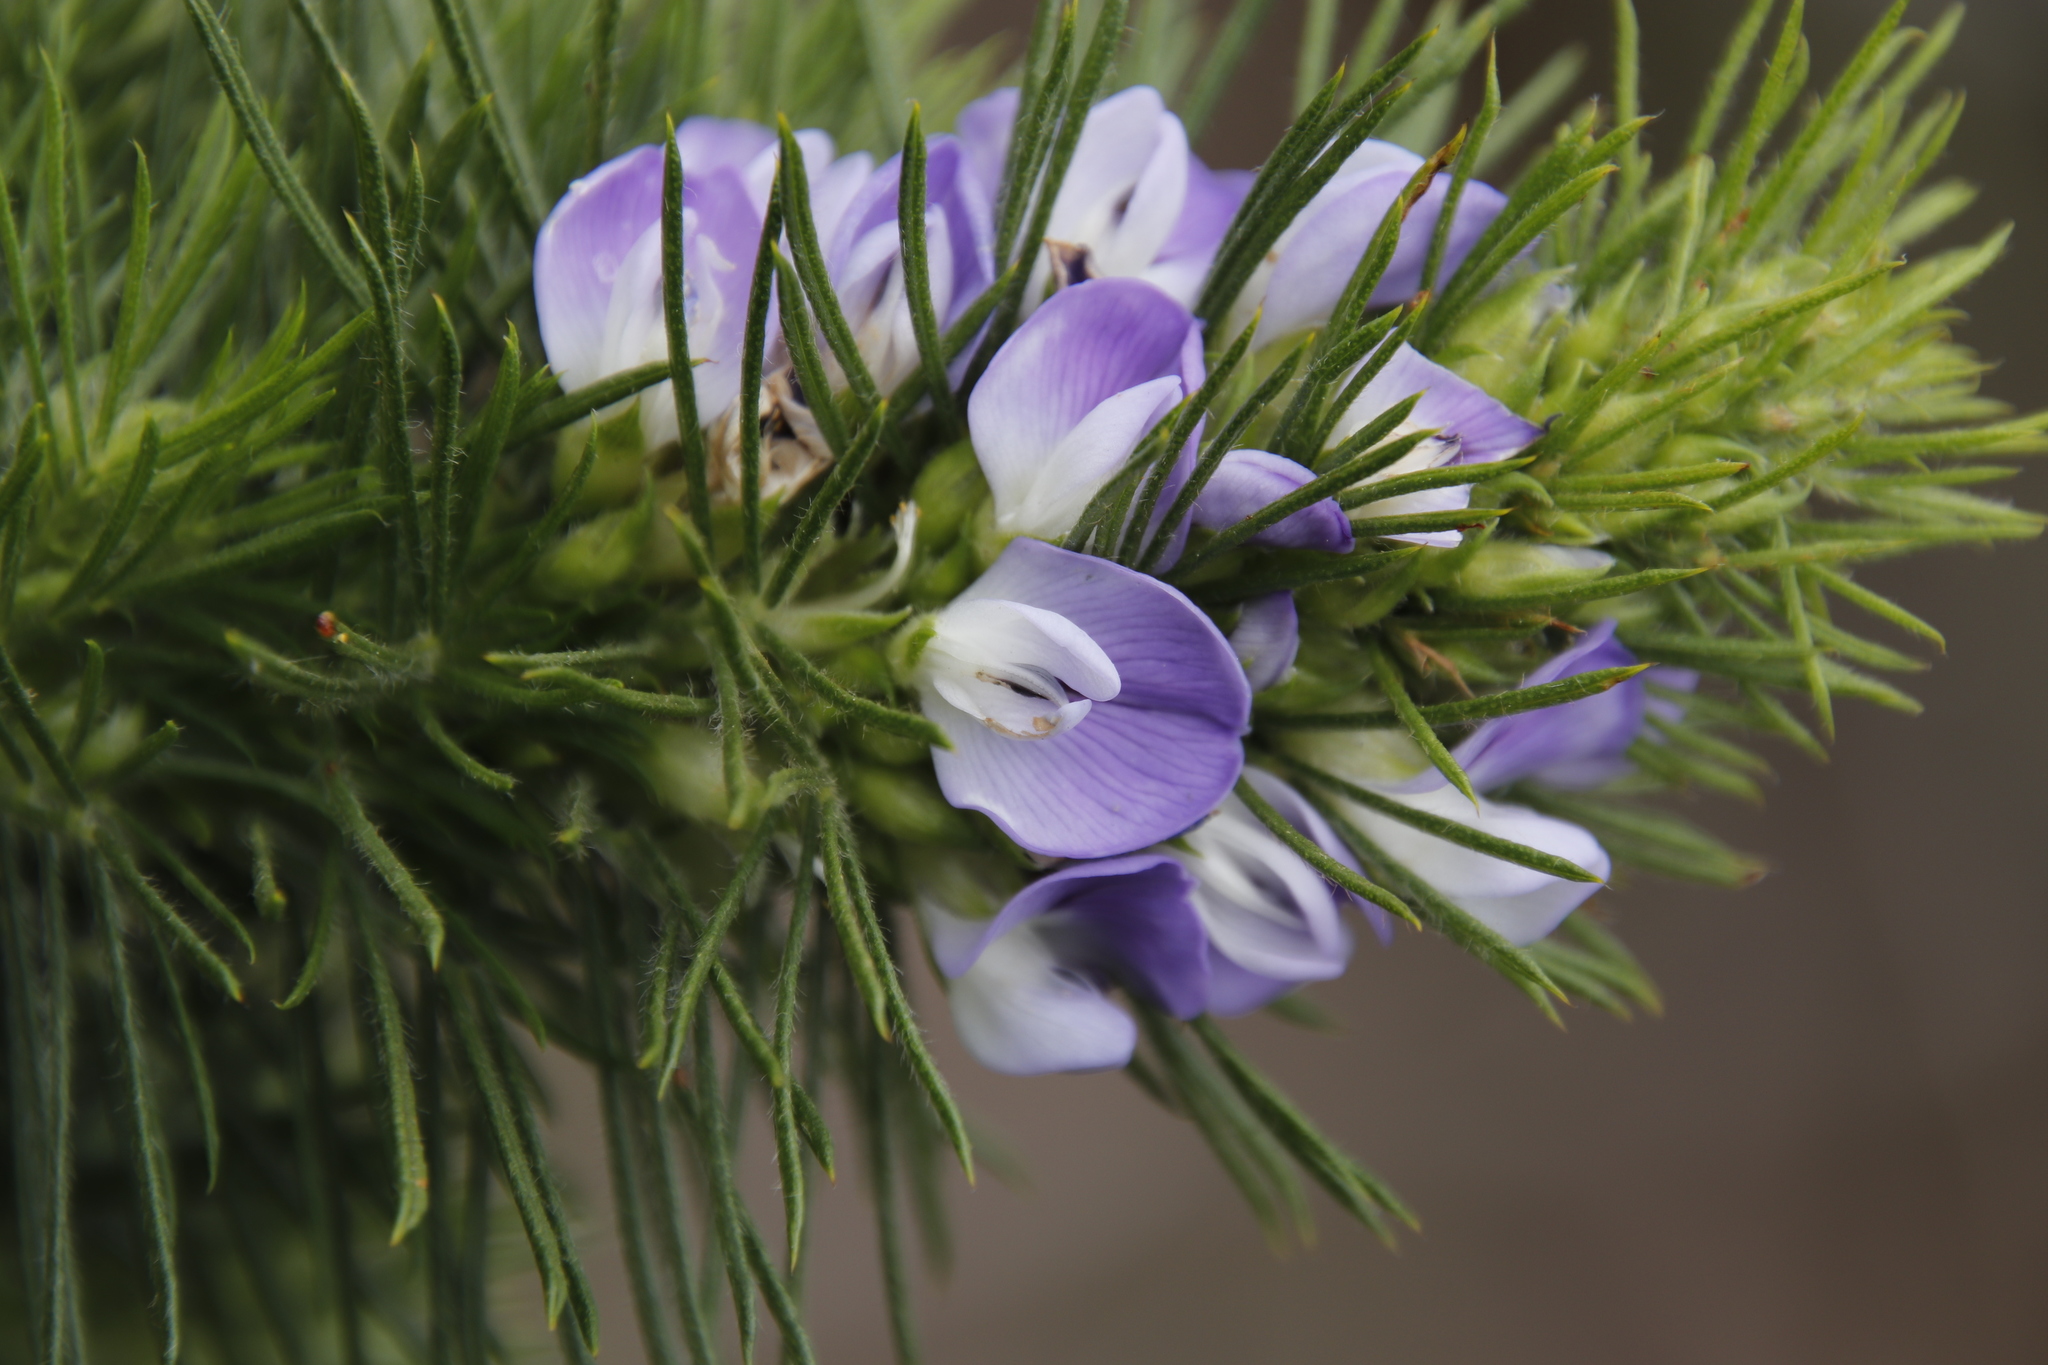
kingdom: Plantae
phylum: Tracheophyta
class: Magnoliopsida
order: Fabales
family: Fabaceae
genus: Psoralea
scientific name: Psoralea pinnata
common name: African scurfpea
